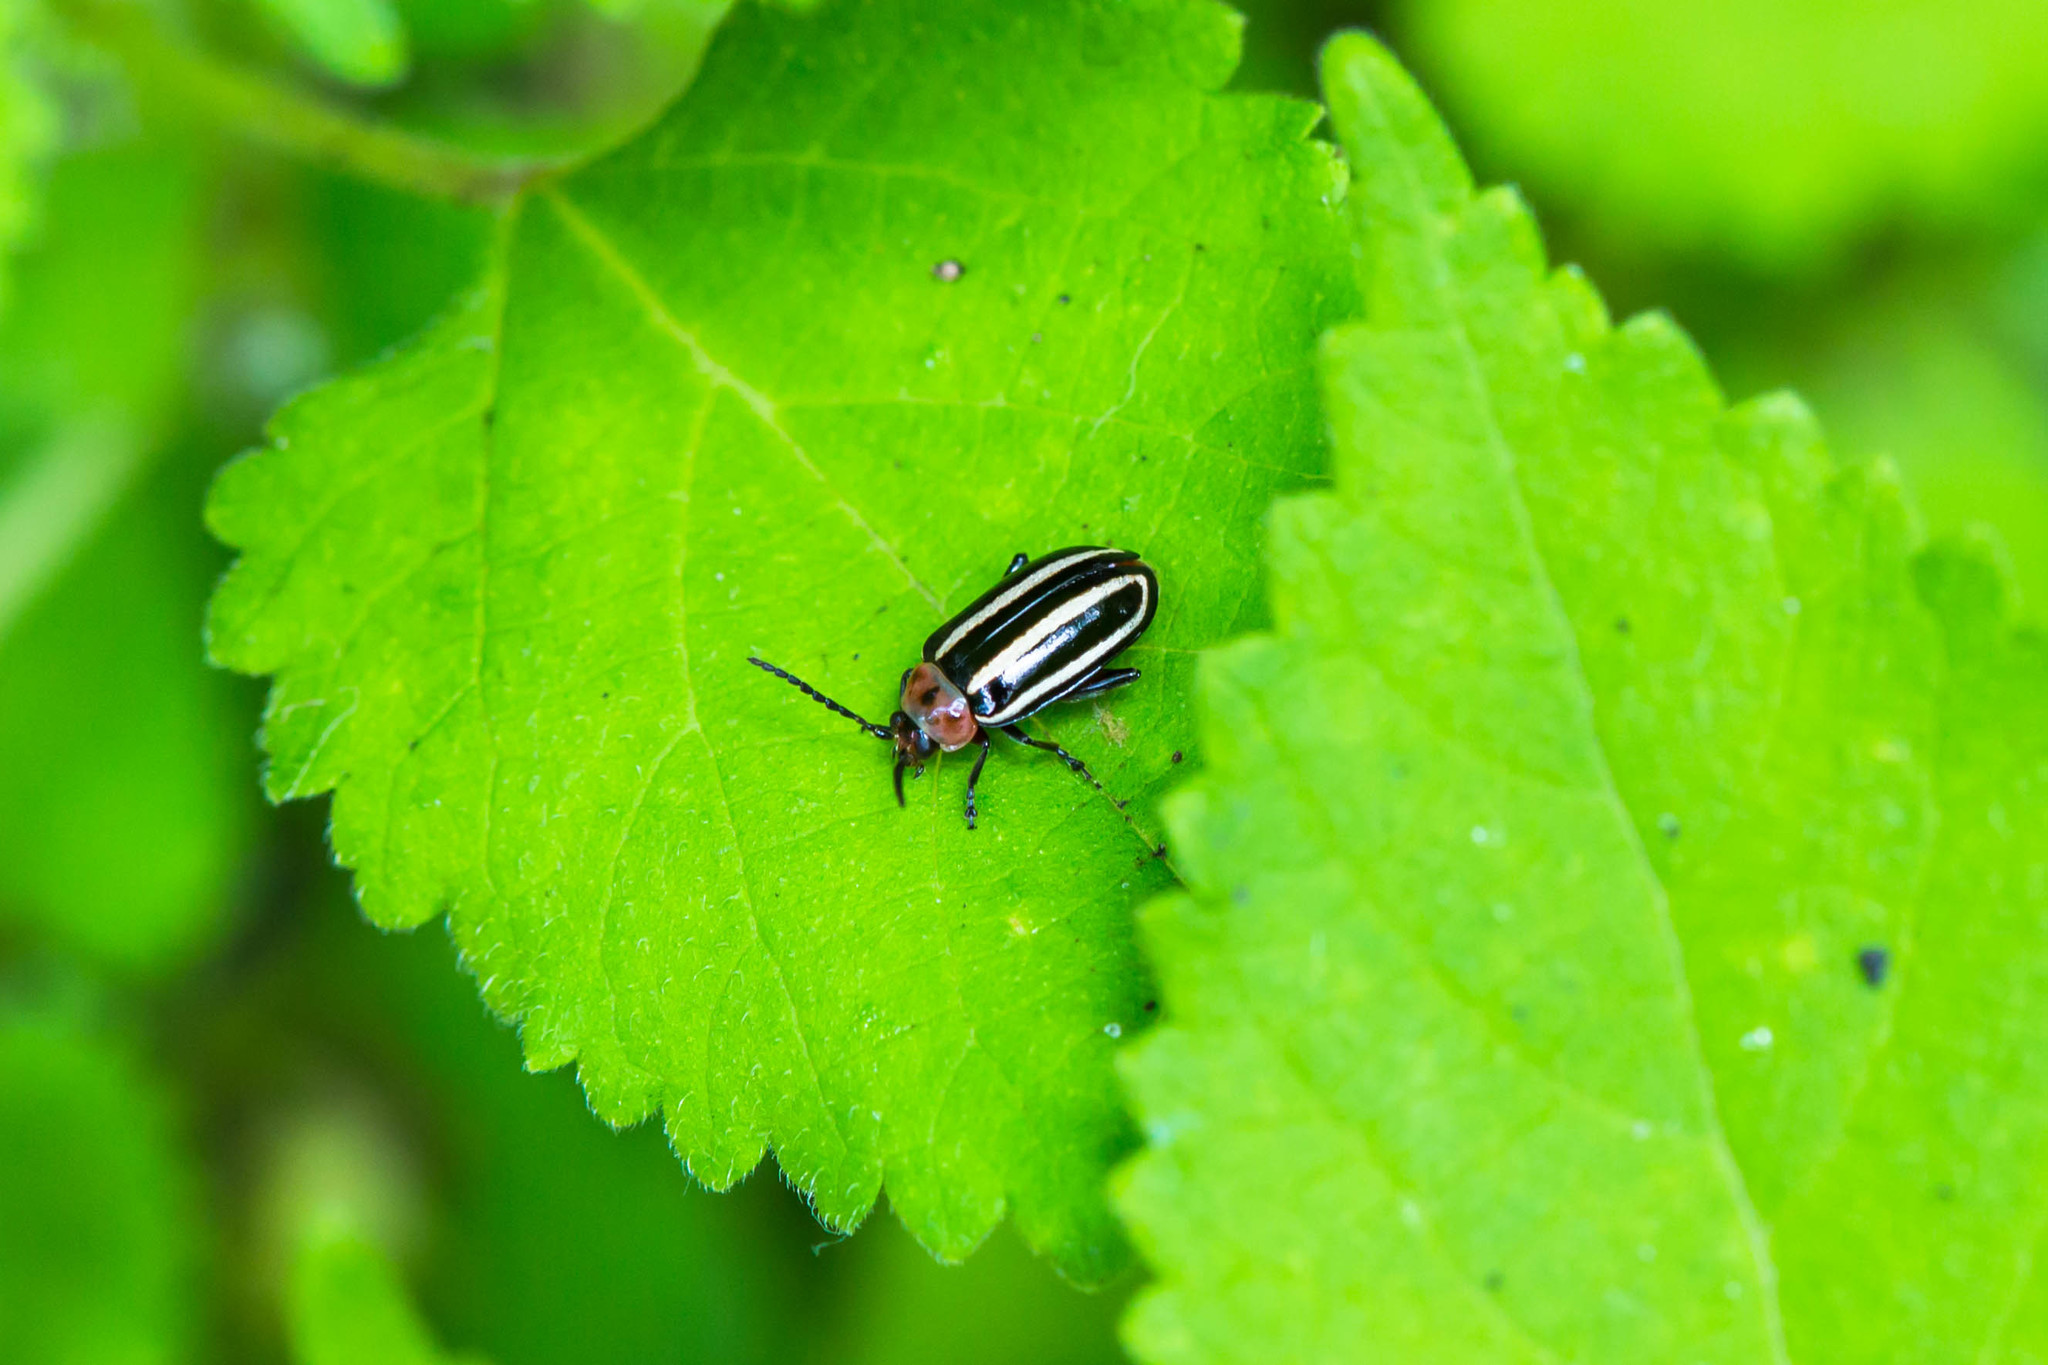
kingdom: Animalia
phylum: Arthropoda
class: Insecta
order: Coleoptera
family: Chrysomelidae
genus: Disonycha
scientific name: Disonycha glabrata
